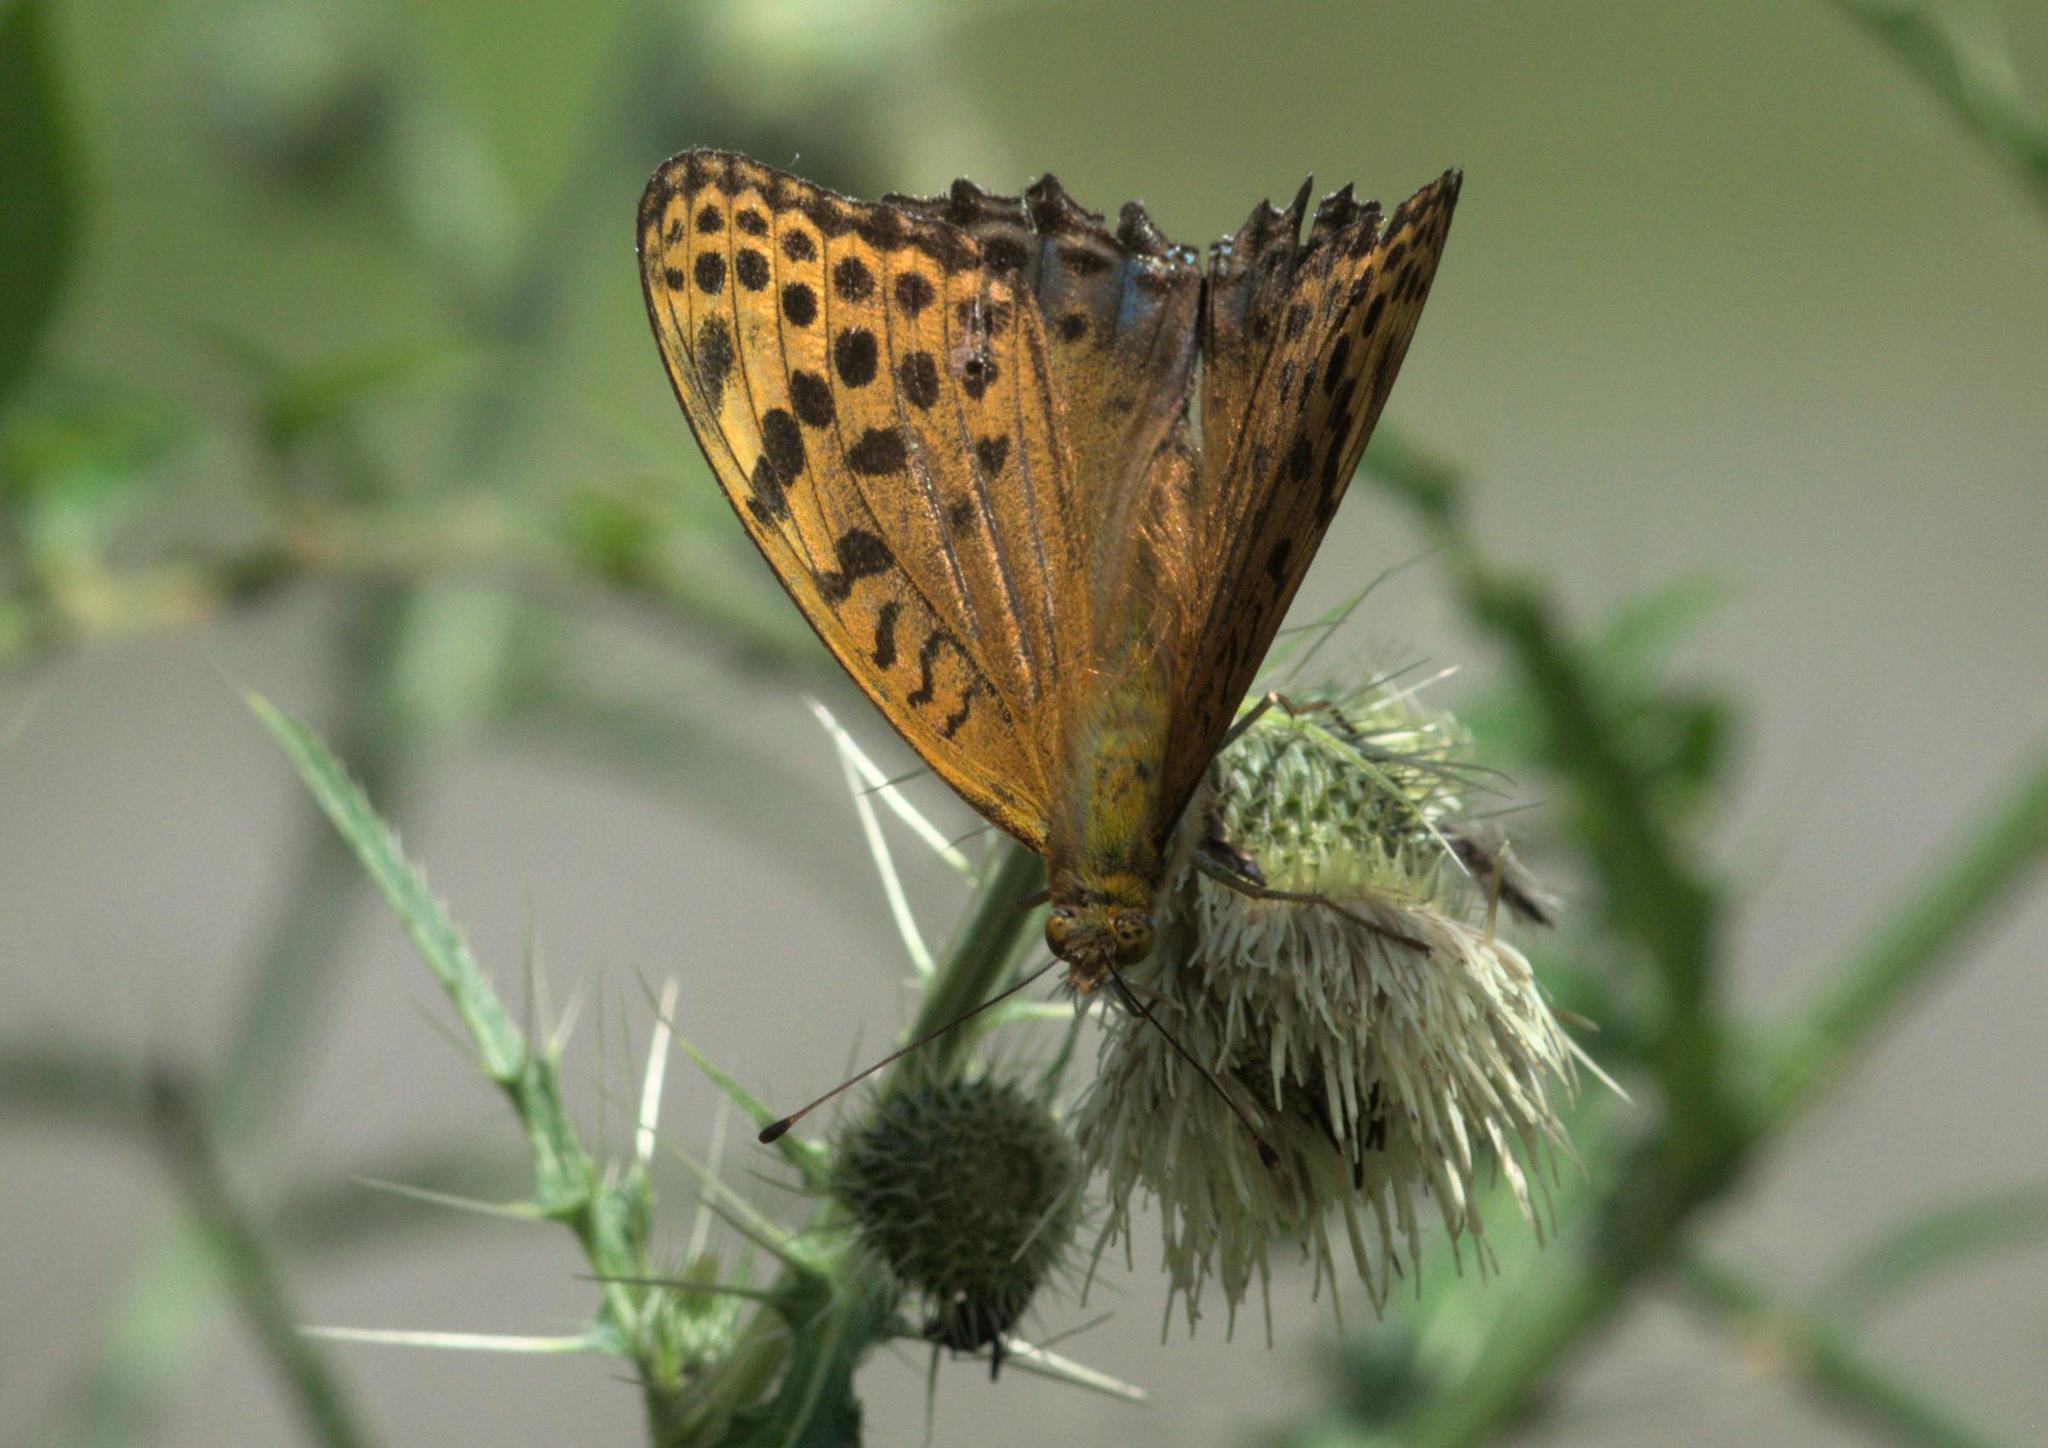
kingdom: Animalia
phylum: Arthropoda
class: Insecta
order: Lepidoptera
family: Nymphalidae
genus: Childrena
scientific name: Childrena childreni
